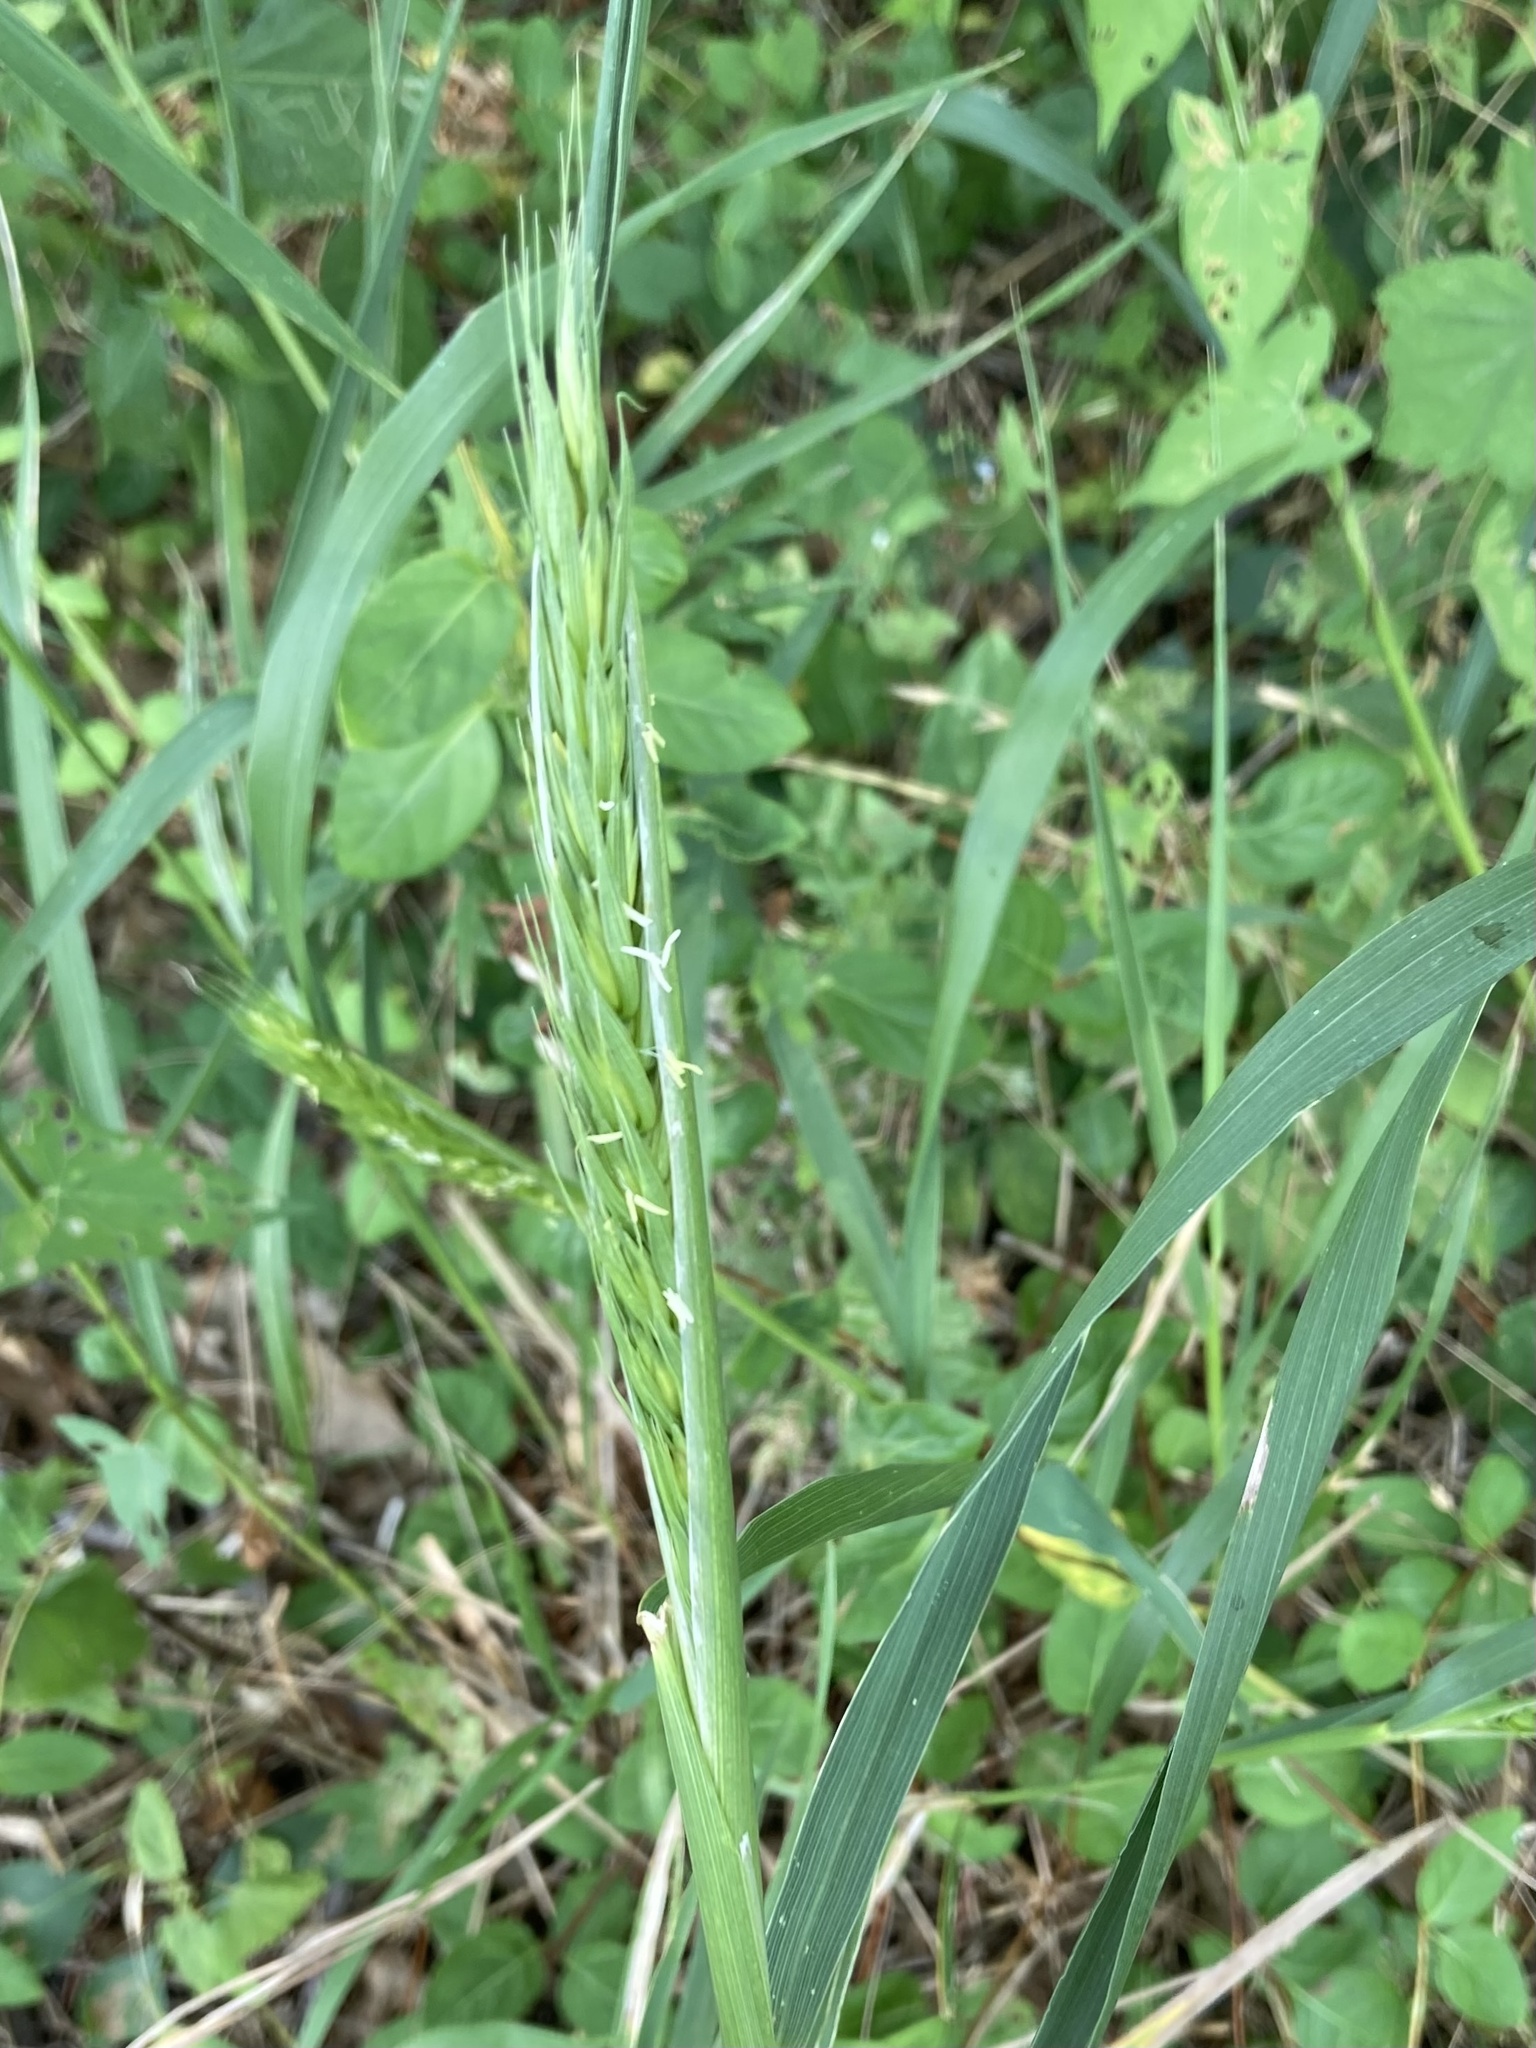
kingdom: Plantae
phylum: Tracheophyta
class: Liliopsida
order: Poales
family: Poaceae
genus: Elymus
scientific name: Elymus virginicus
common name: Common eastern wildrye
